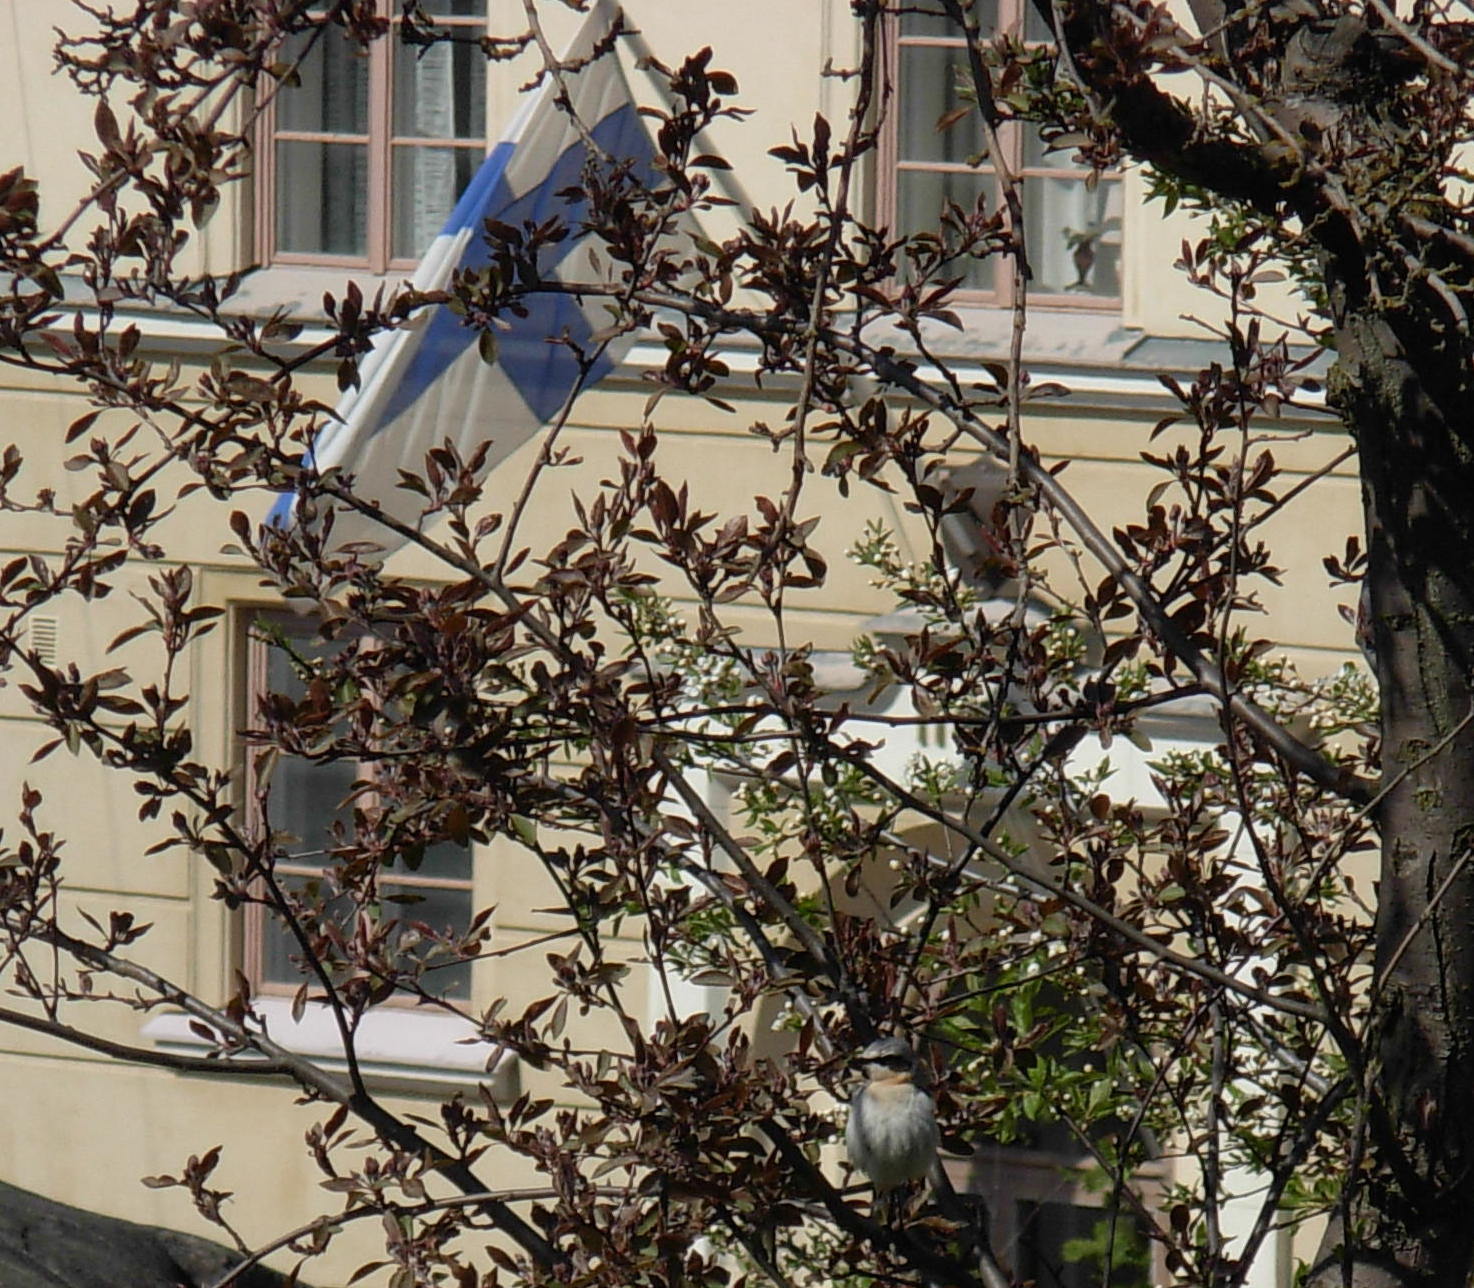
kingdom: Animalia
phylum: Chordata
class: Aves
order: Passeriformes
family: Muscicapidae
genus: Oenanthe
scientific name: Oenanthe oenanthe
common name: Northern wheatear
